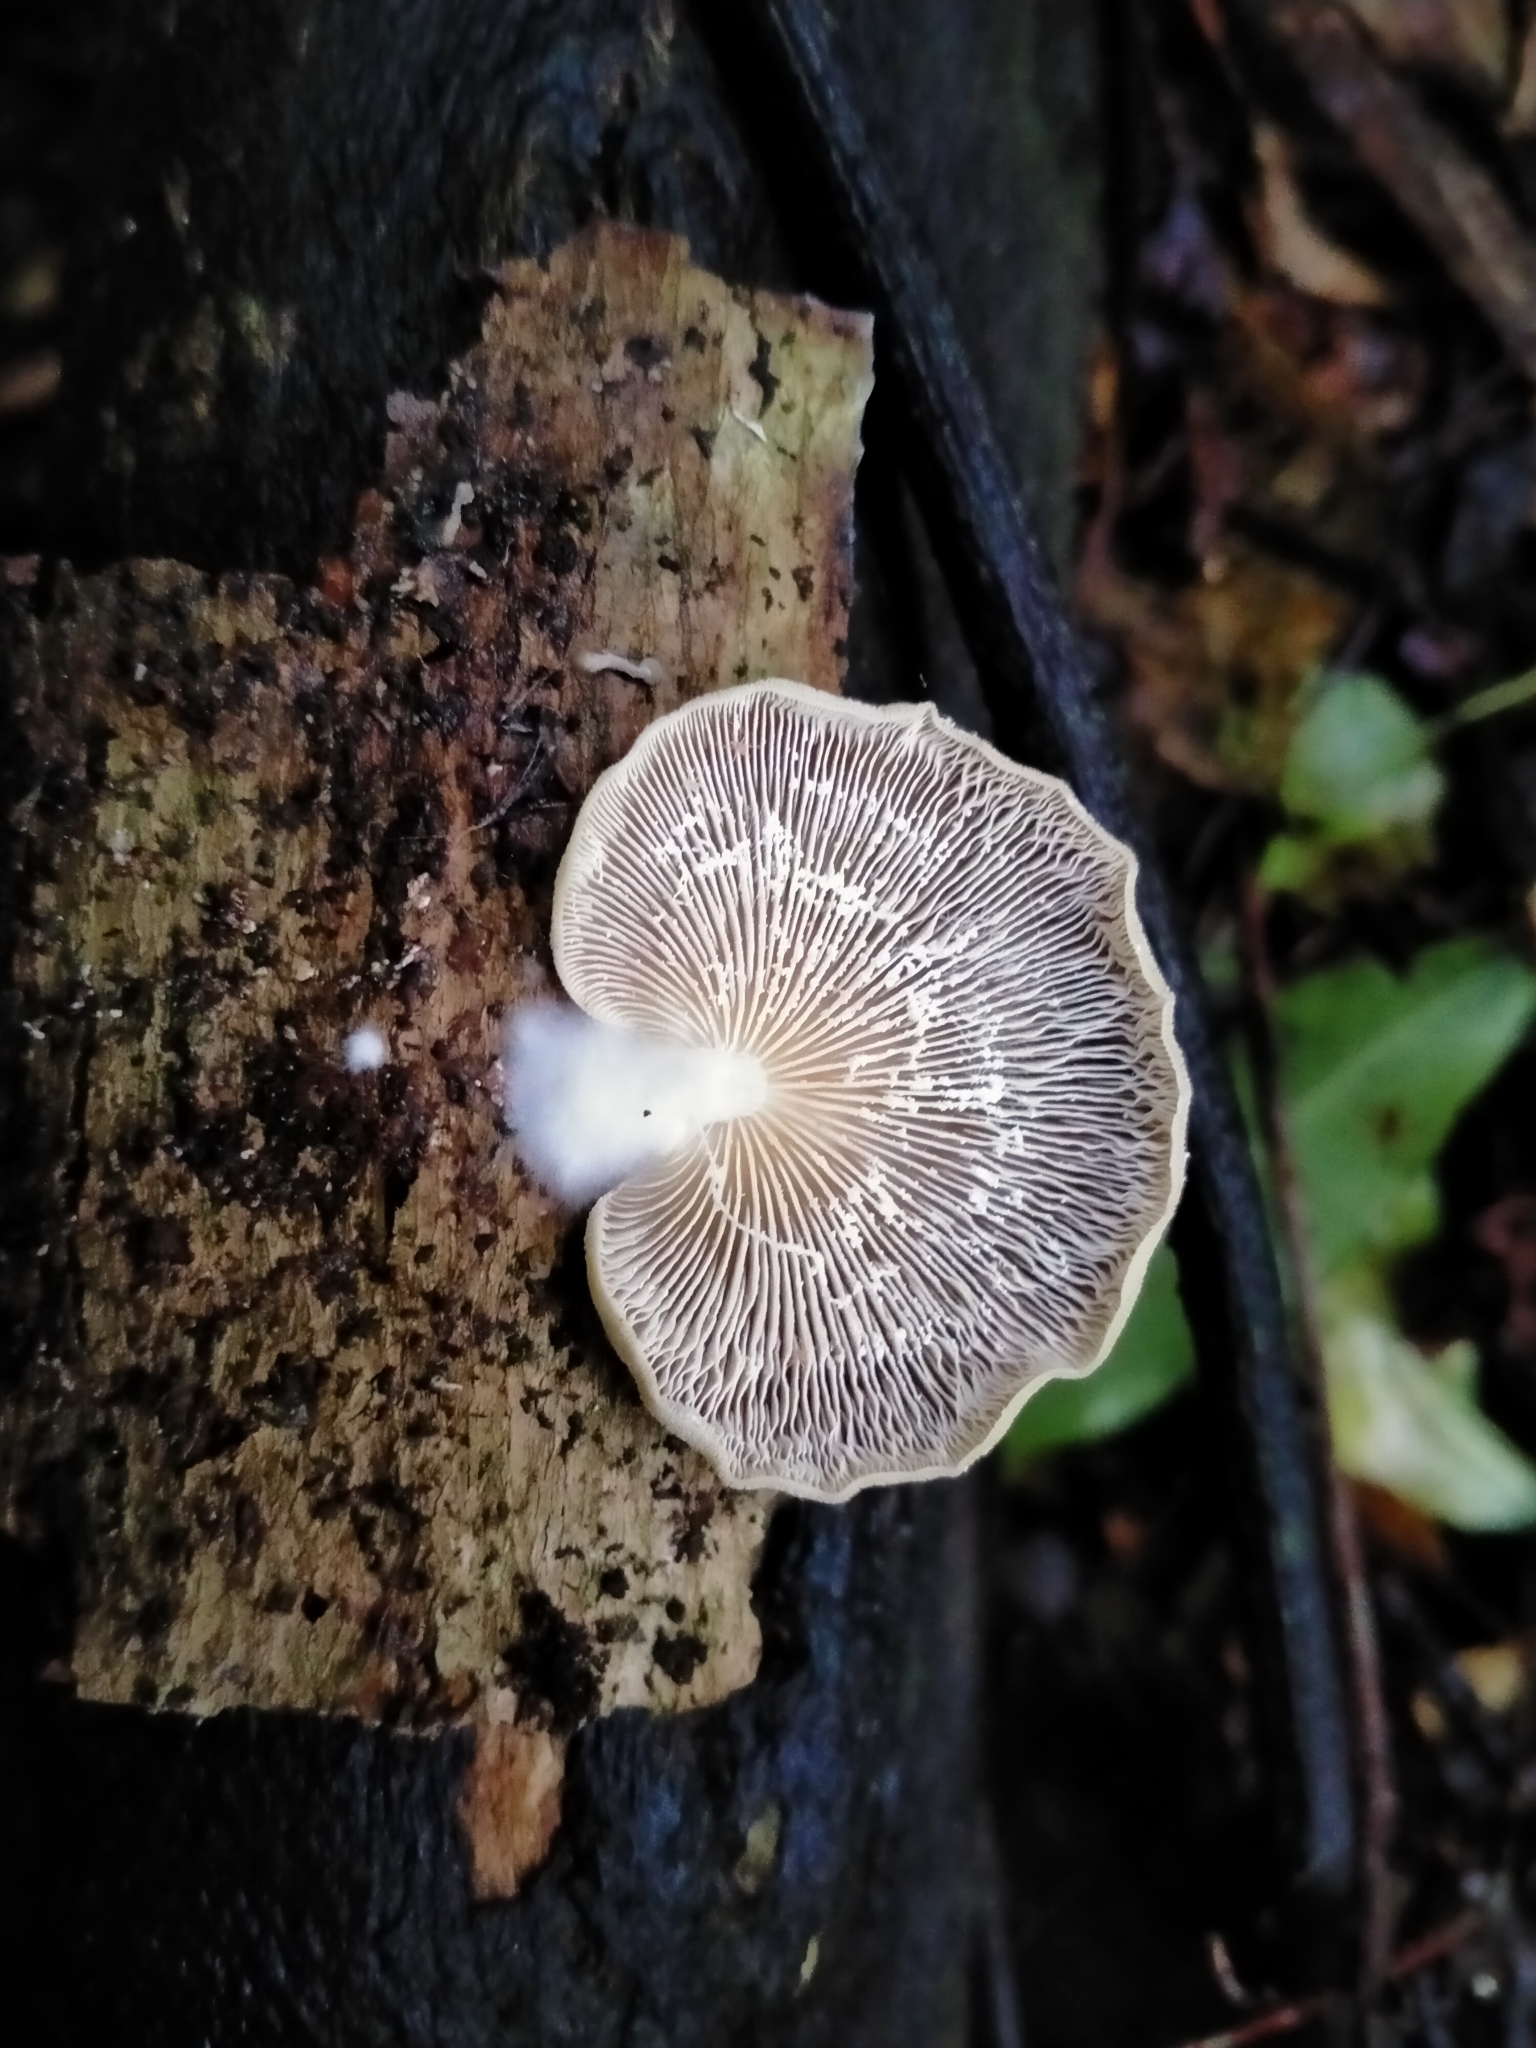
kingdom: Fungi
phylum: Basidiomycota
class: Agaricomycetes
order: Agaricales
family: Tricholomataceae
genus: Conchomyces
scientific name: Conchomyces bursiformis
